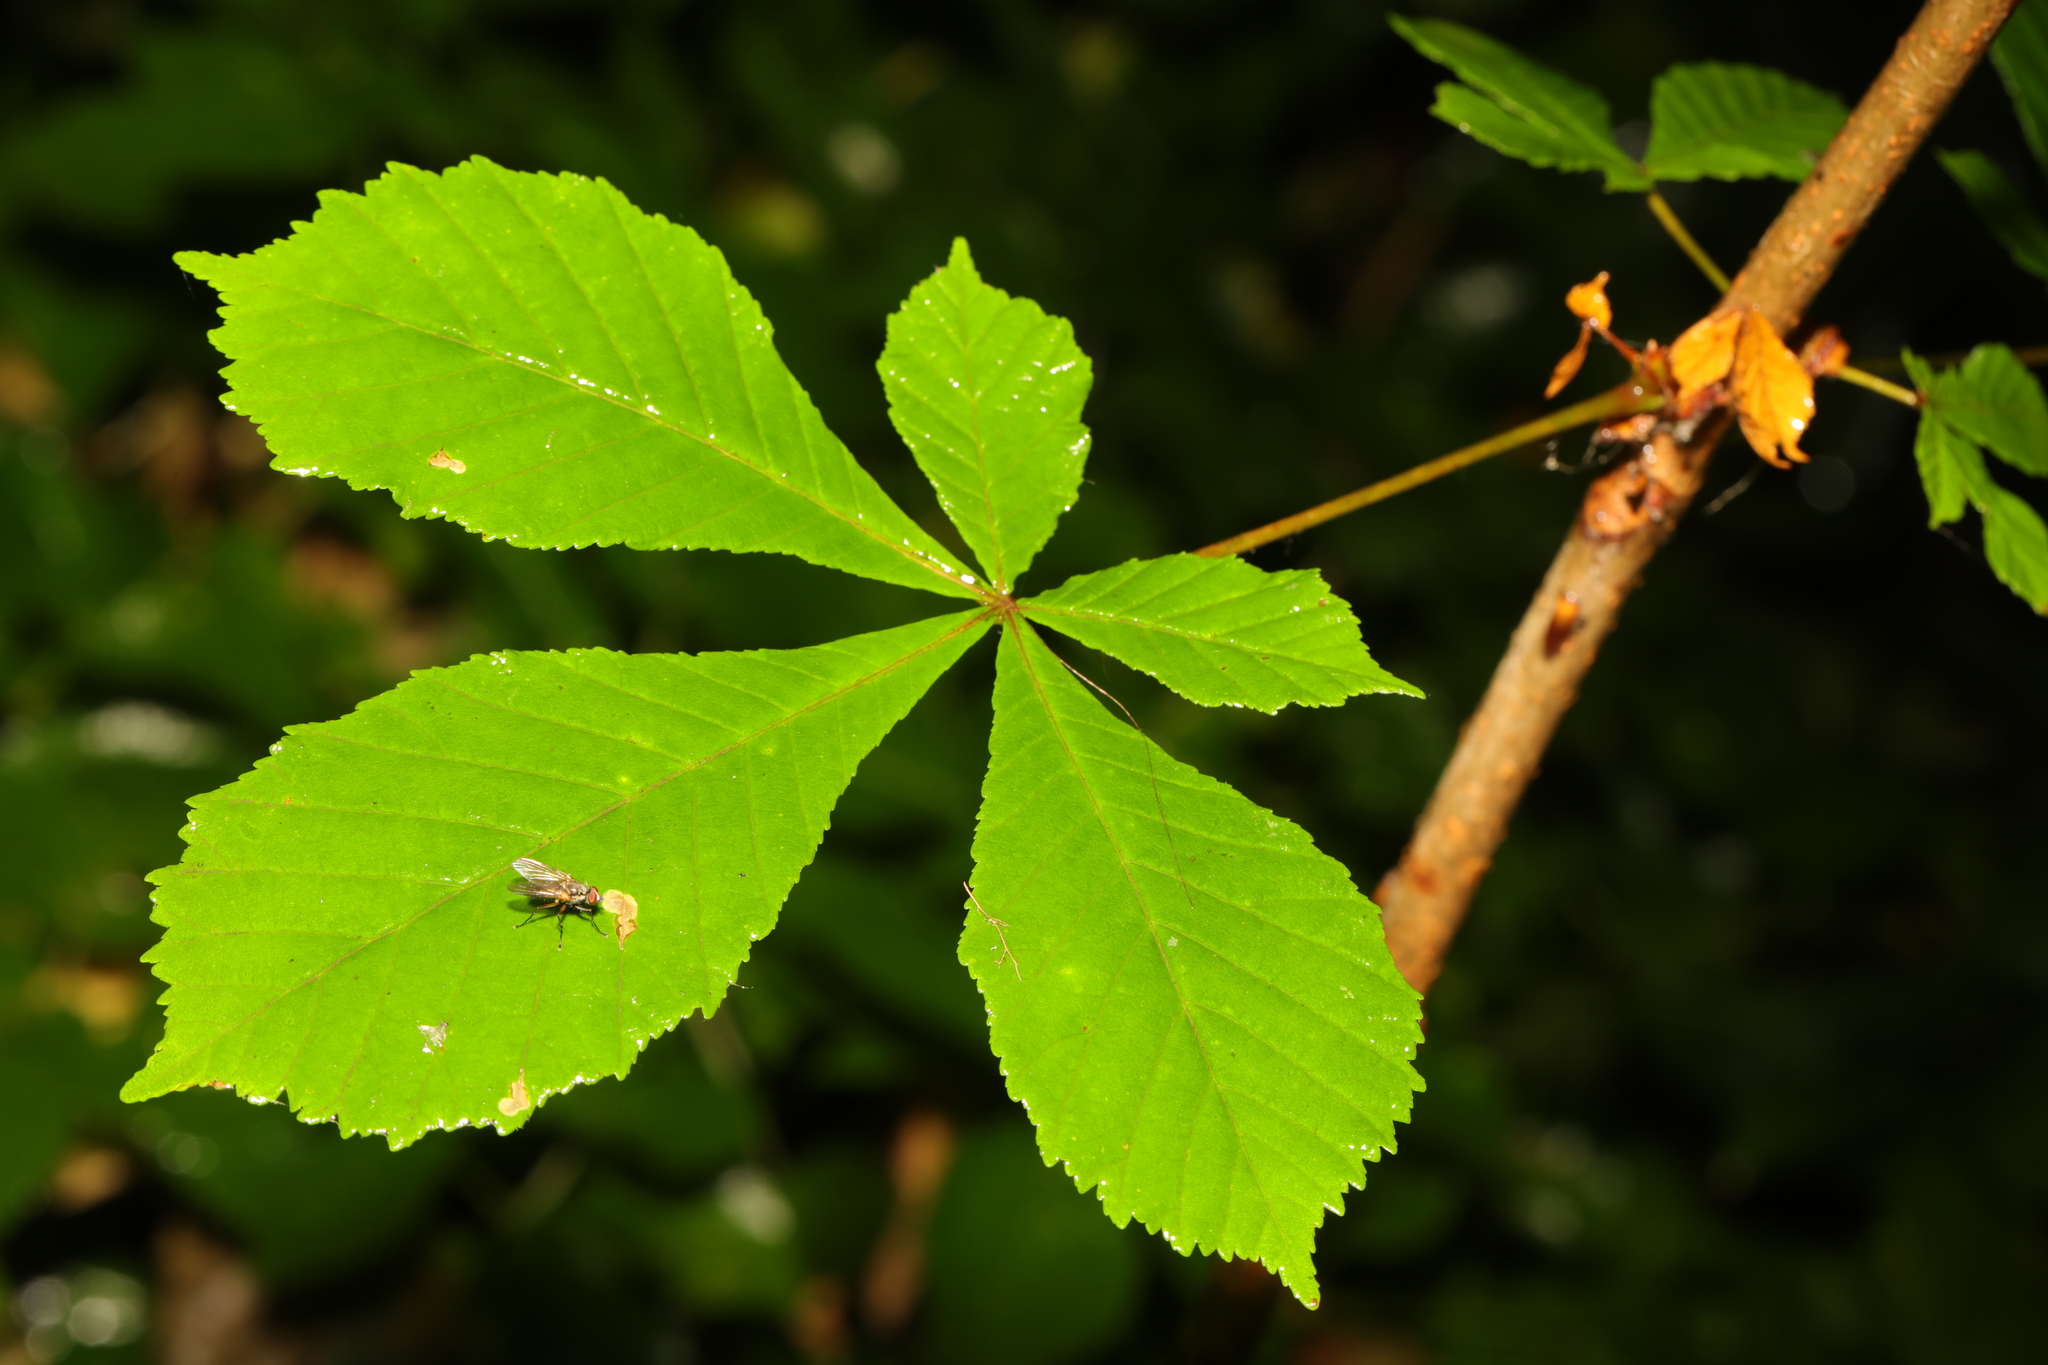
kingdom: Plantae
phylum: Tracheophyta
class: Magnoliopsida
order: Sapindales
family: Sapindaceae
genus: Aesculus
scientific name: Aesculus hippocastanum
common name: Horse-chestnut
